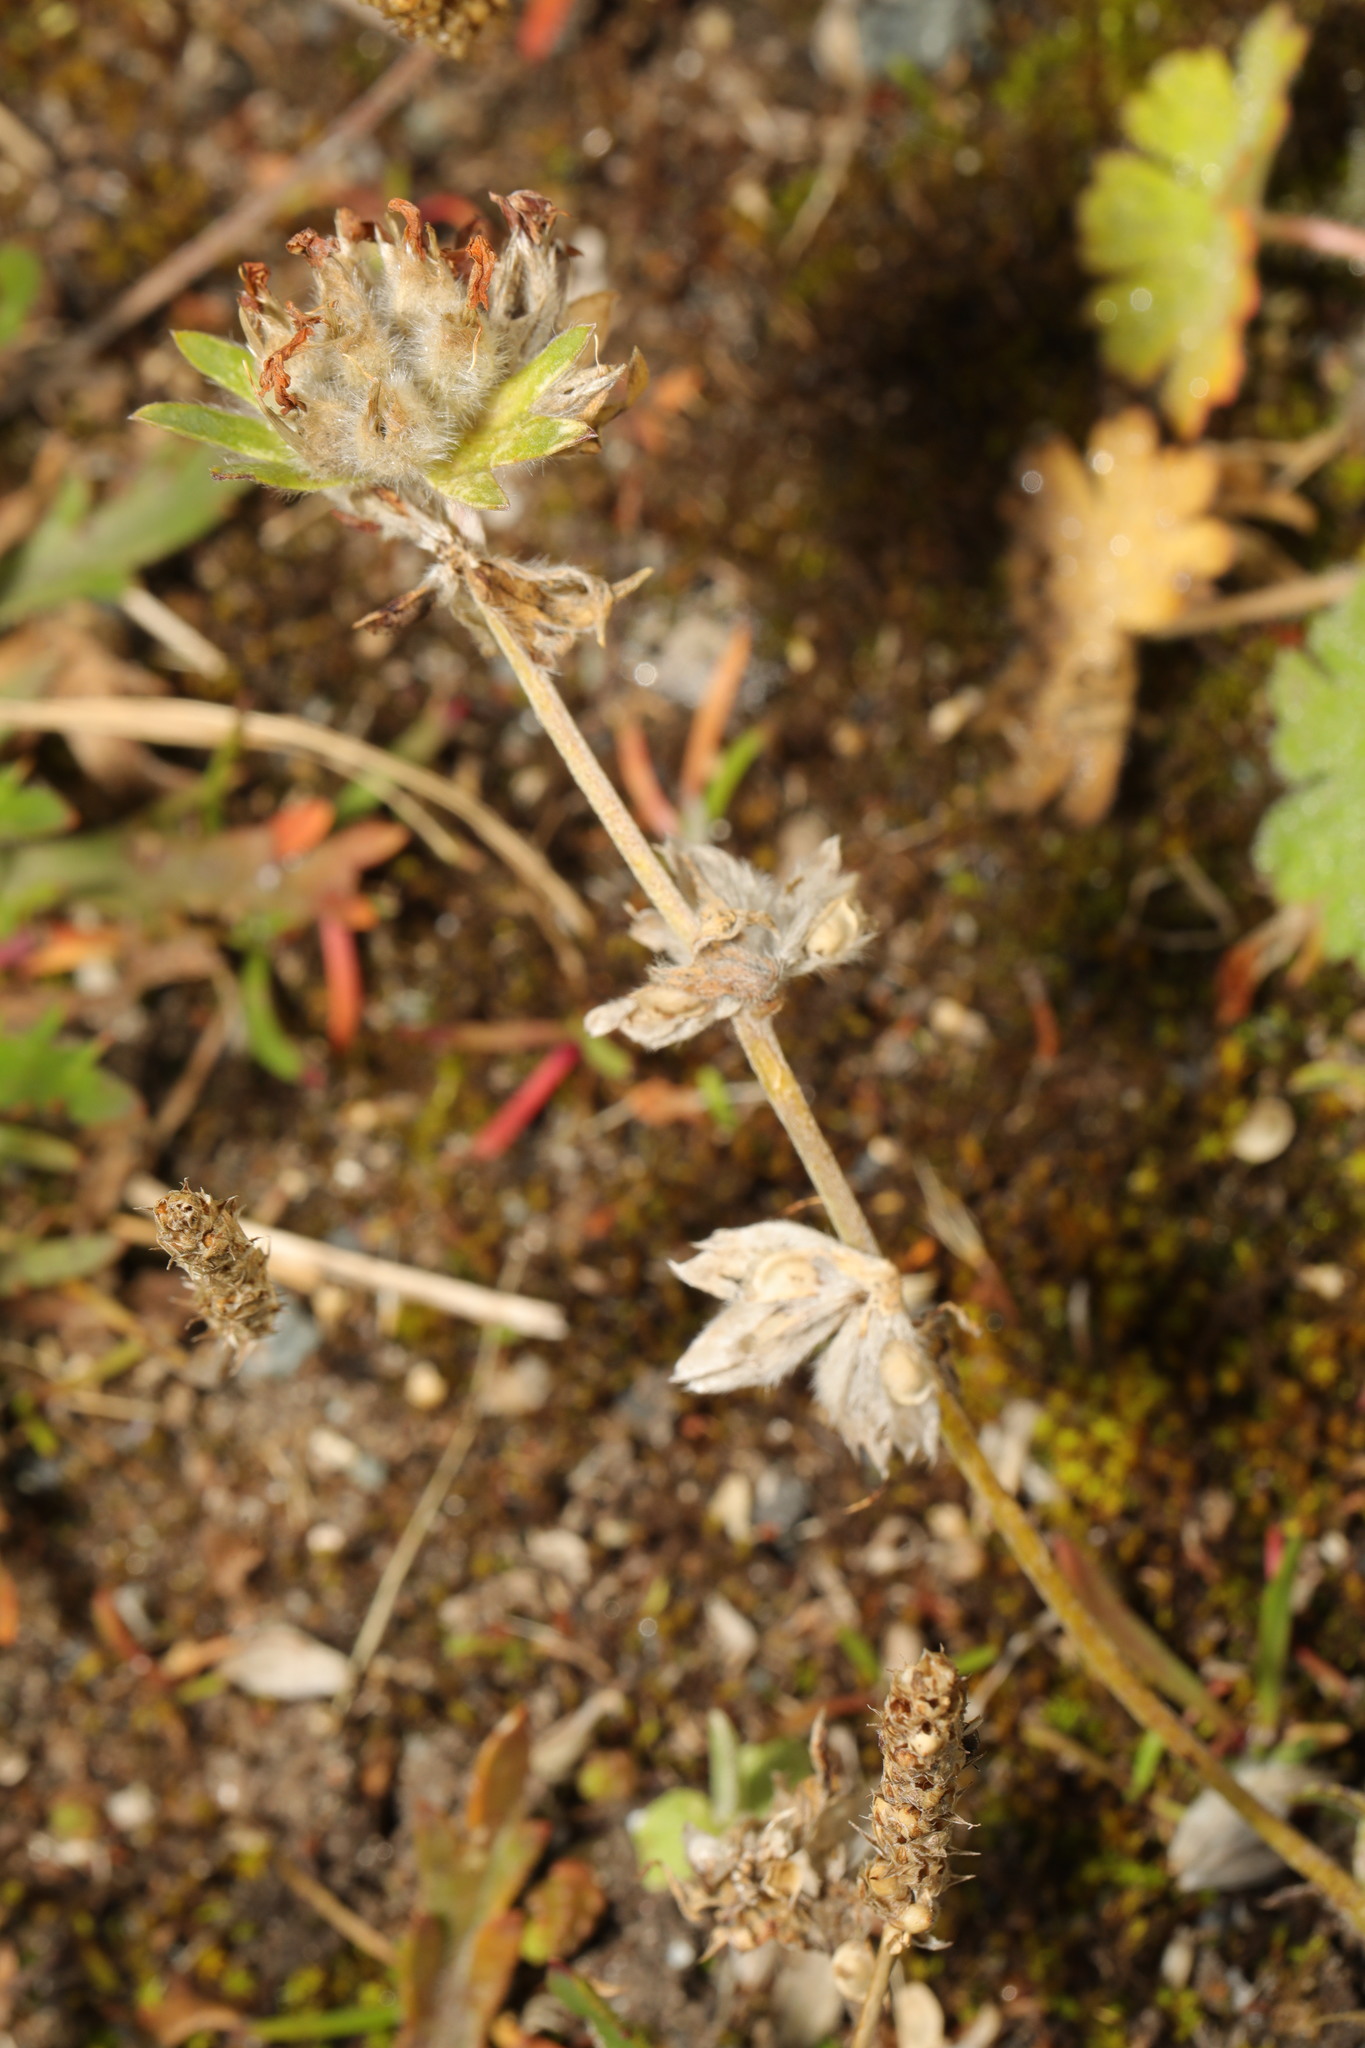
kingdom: Plantae
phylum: Tracheophyta
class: Magnoliopsida
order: Fabales
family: Fabaceae
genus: Anthyllis
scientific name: Anthyllis vulneraria
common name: Kidney vetch
